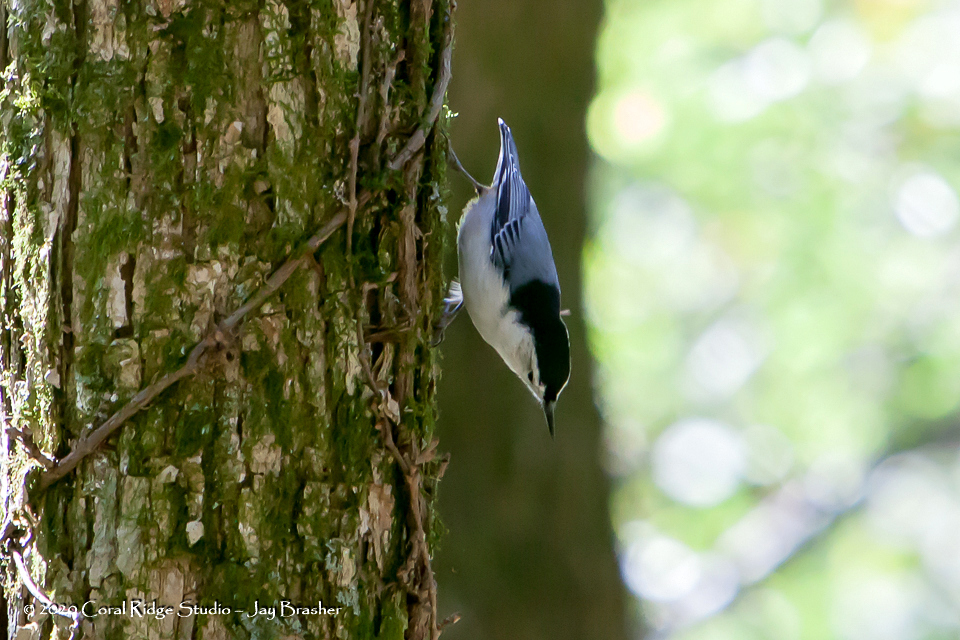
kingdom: Animalia
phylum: Chordata
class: Aves
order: Passeriformes
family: Sittidae
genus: Sitta
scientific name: Sitta carolinensis
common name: White-breasted nuthatch
